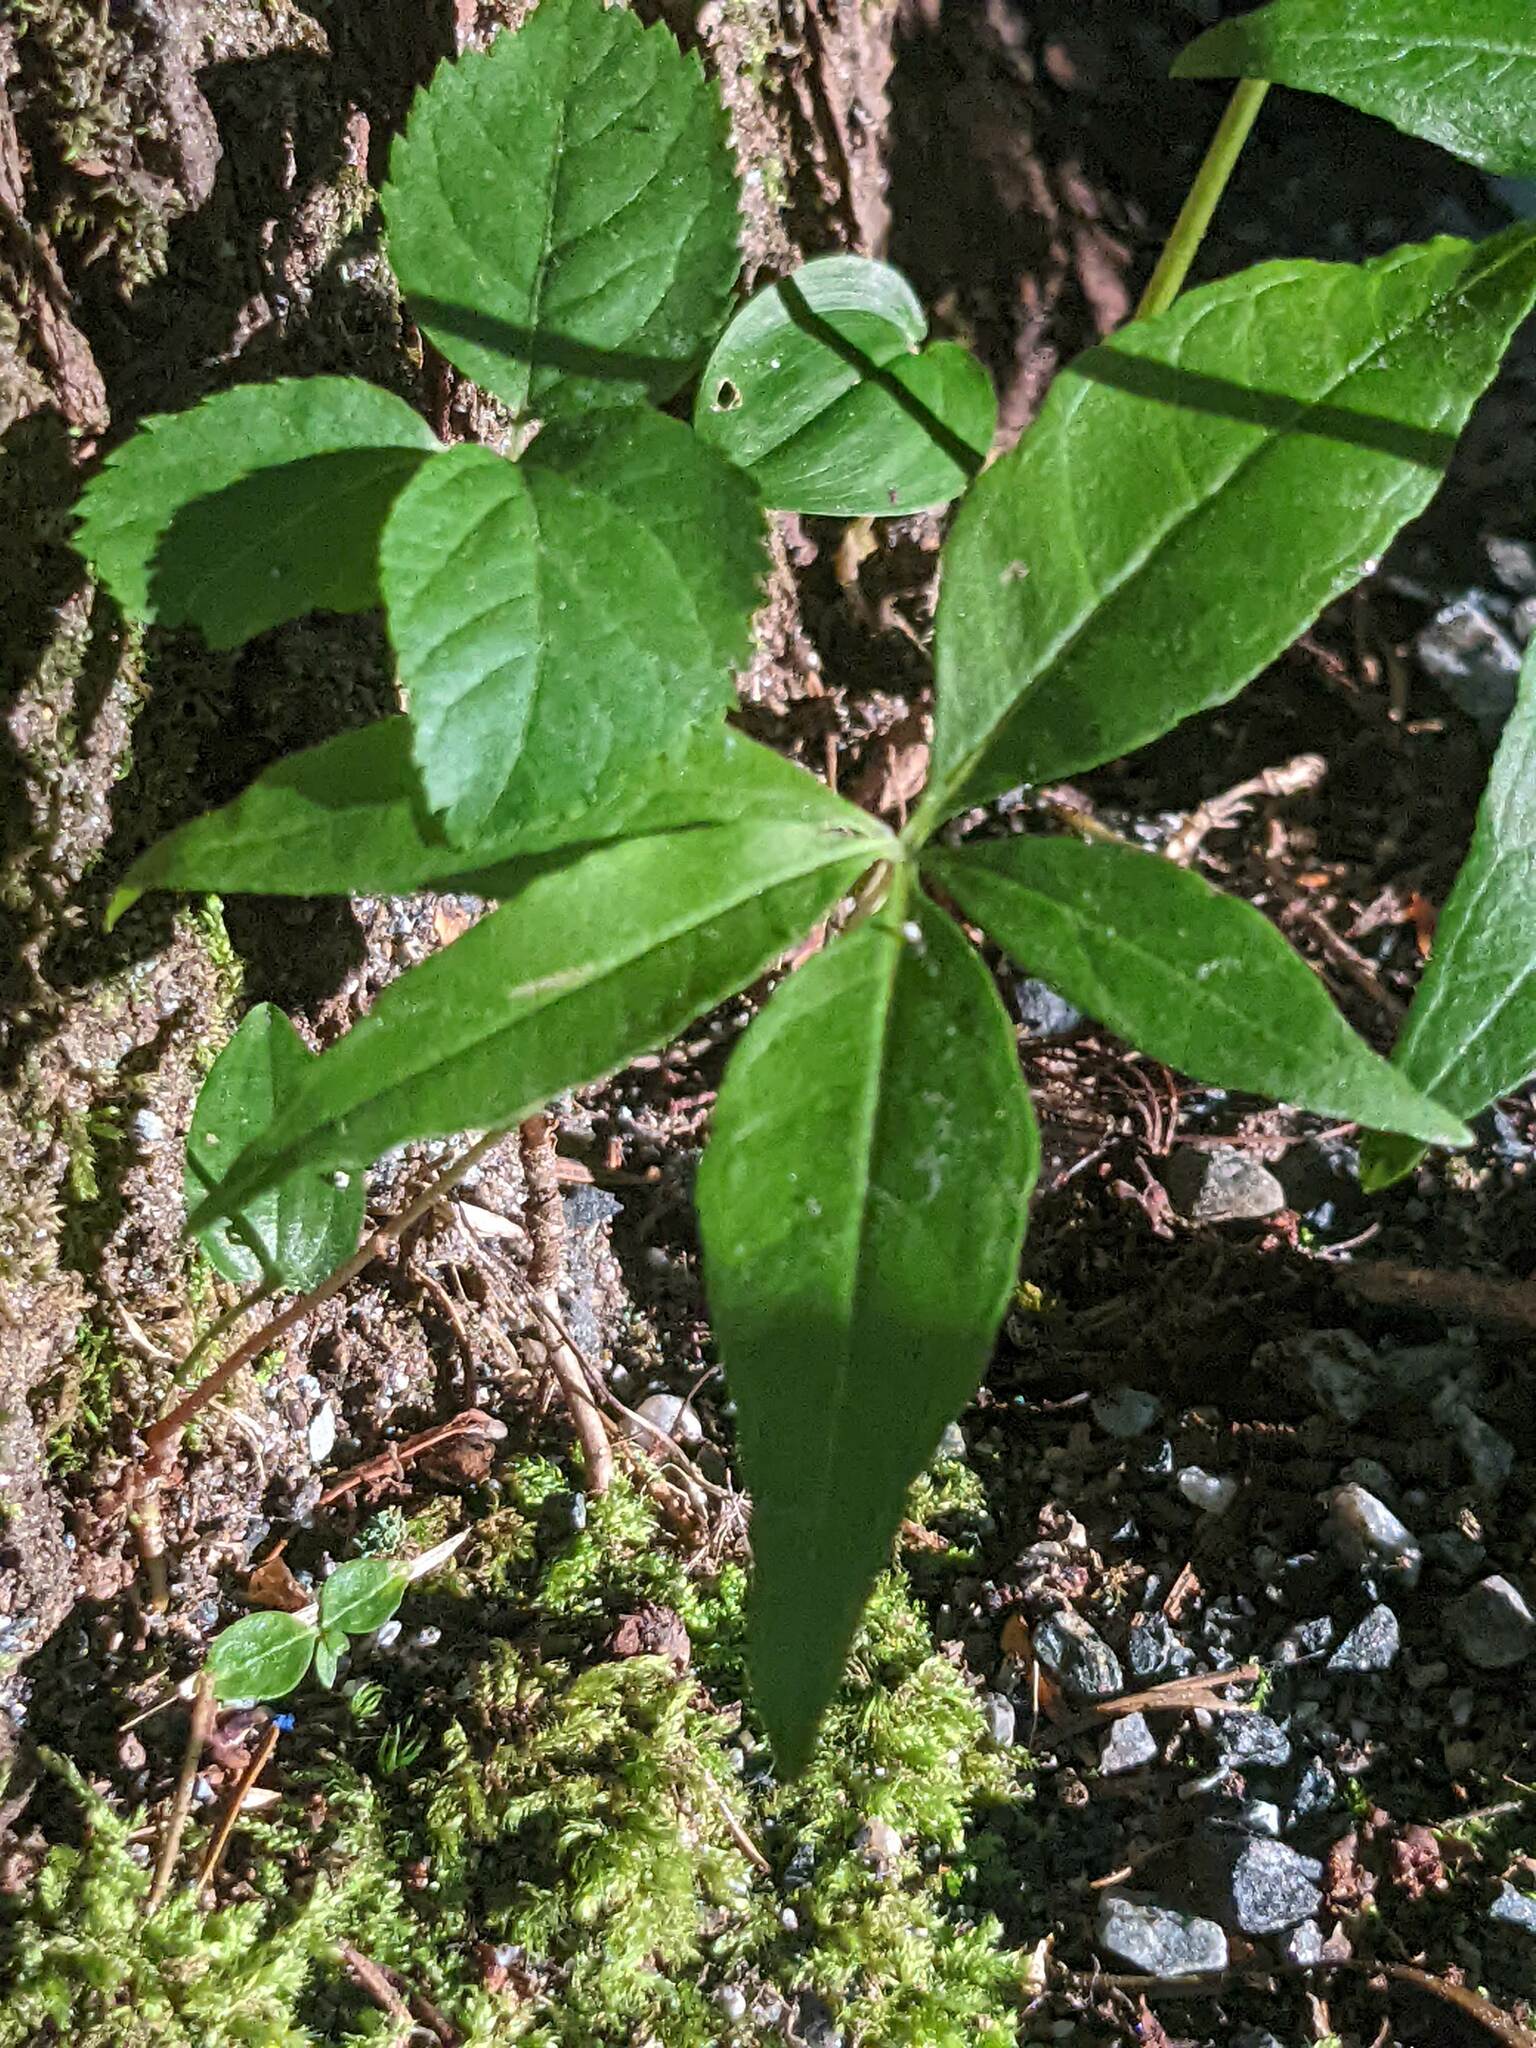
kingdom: Plantae
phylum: Tracheophyta
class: Magnoliopsida
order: Ericales
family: Primulaceae
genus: Lysimachia
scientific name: Lysimachia borealis
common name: American starflower
